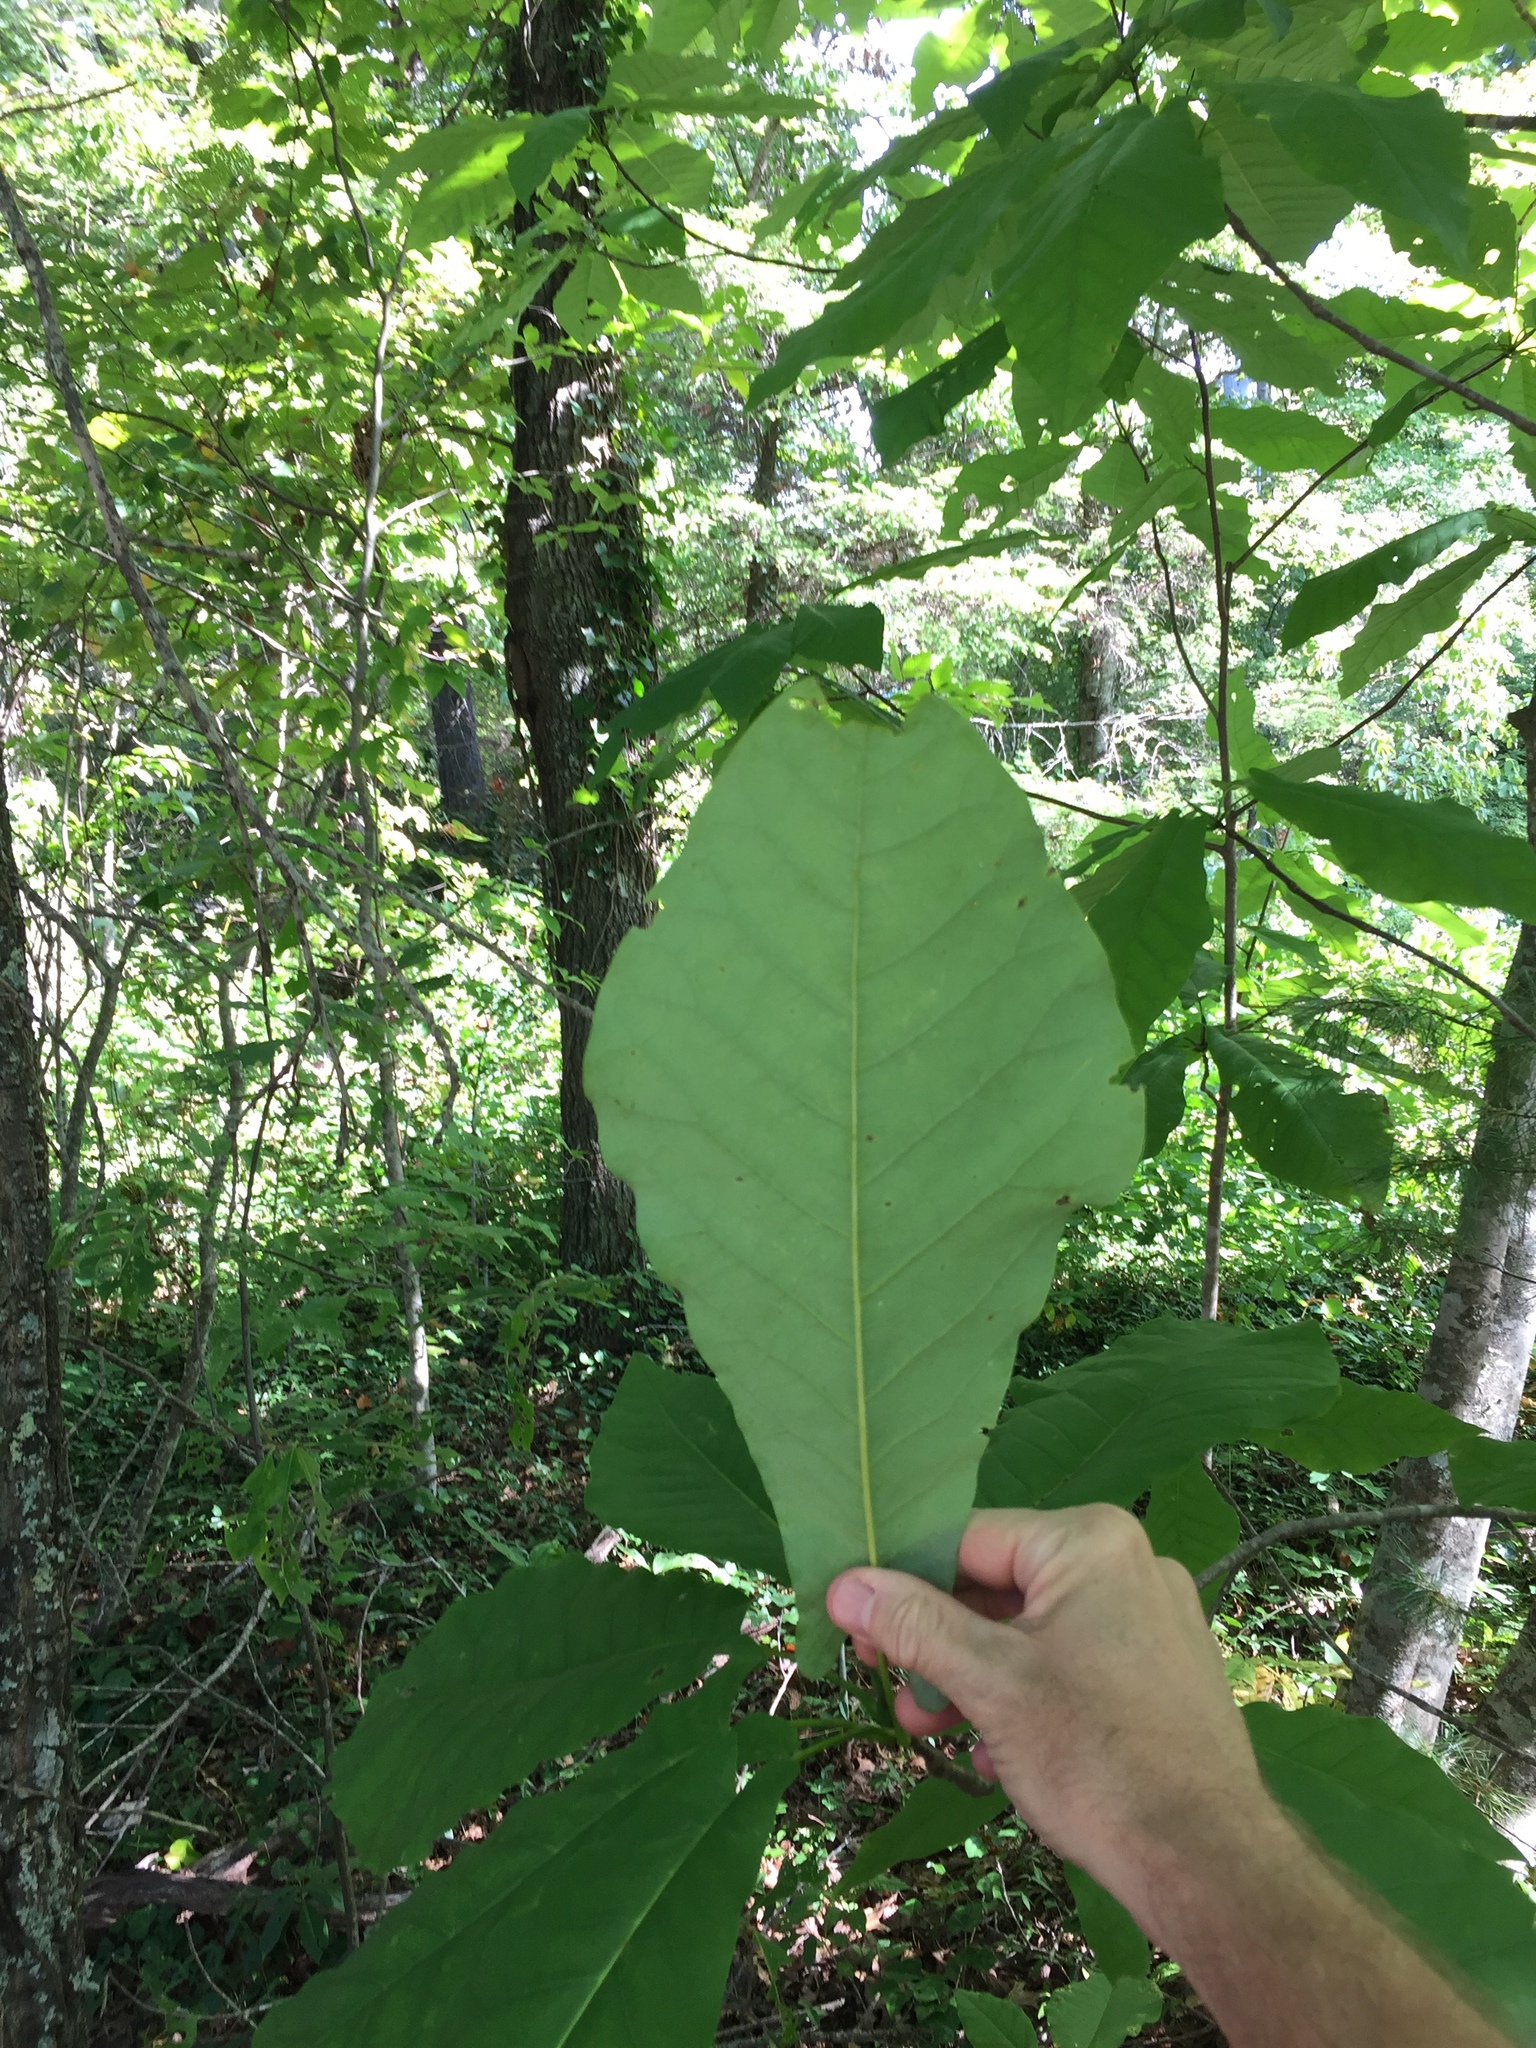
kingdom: Plantae
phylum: Tracheophyta
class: Magnoliopsida
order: Magnoliales
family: Magnoliaceae
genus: Magnolia
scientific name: Magnolia fraseri
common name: Fraser's magnolia
